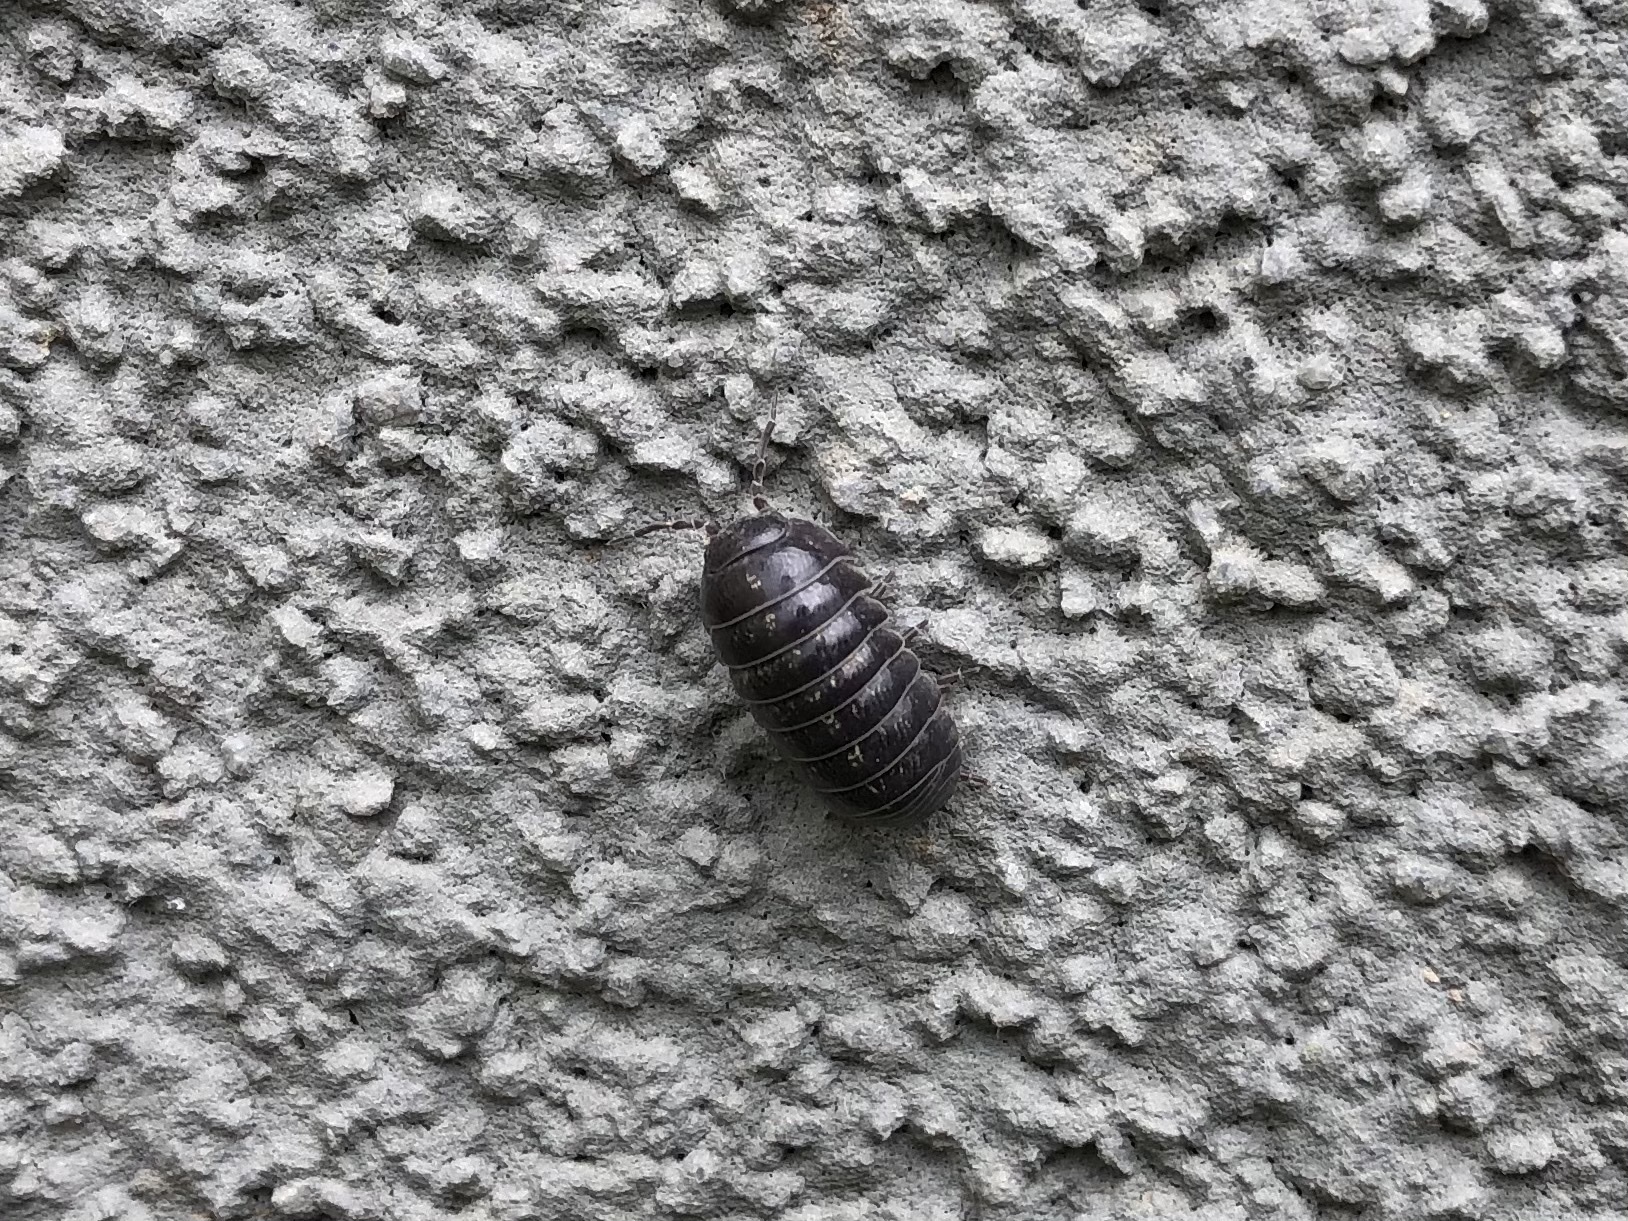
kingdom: Animalia
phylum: Arthropoda
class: Malacostraca
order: Isopoda
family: Armadillidiidae
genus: Armadillidium
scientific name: Armadillidium vulgare
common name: Common pill woodlouse
